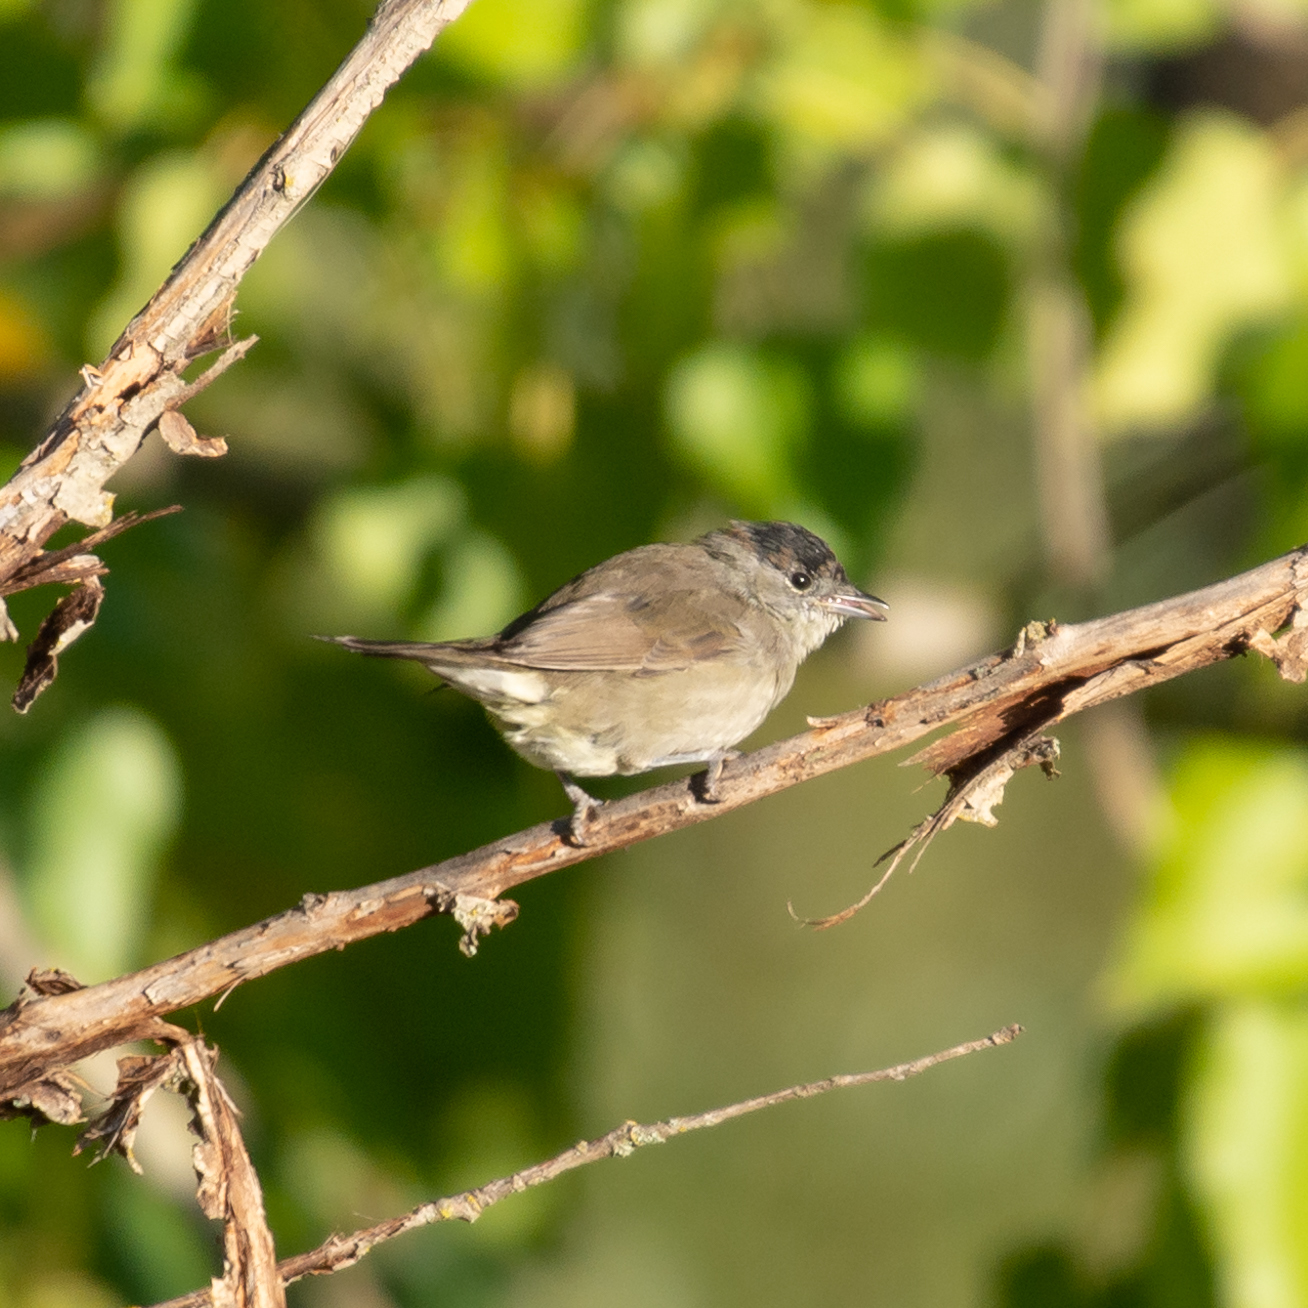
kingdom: Animalia
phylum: Chordata
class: Aves
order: Passeriformes
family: Sylviidae
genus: Sylvia
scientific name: Sylvia atricapilla
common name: Eurasian blackcap
